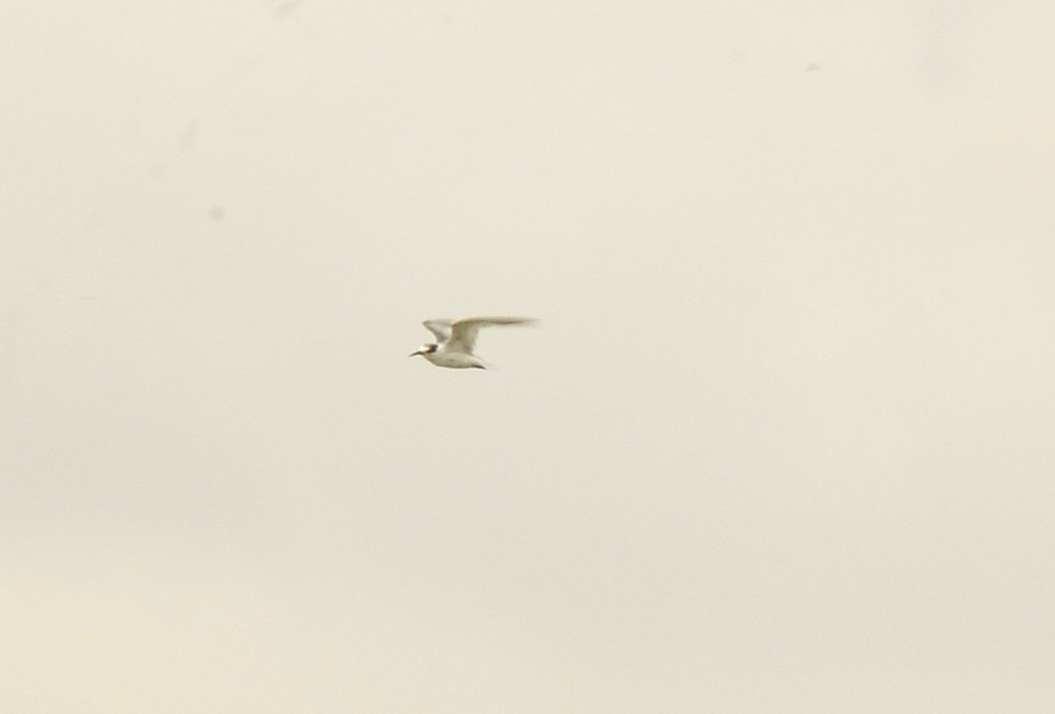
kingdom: Animalia
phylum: Chordata
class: Aves
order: Charadriiformes
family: Laridae
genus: Sternula
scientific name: Sternula albifrons
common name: Little tern
